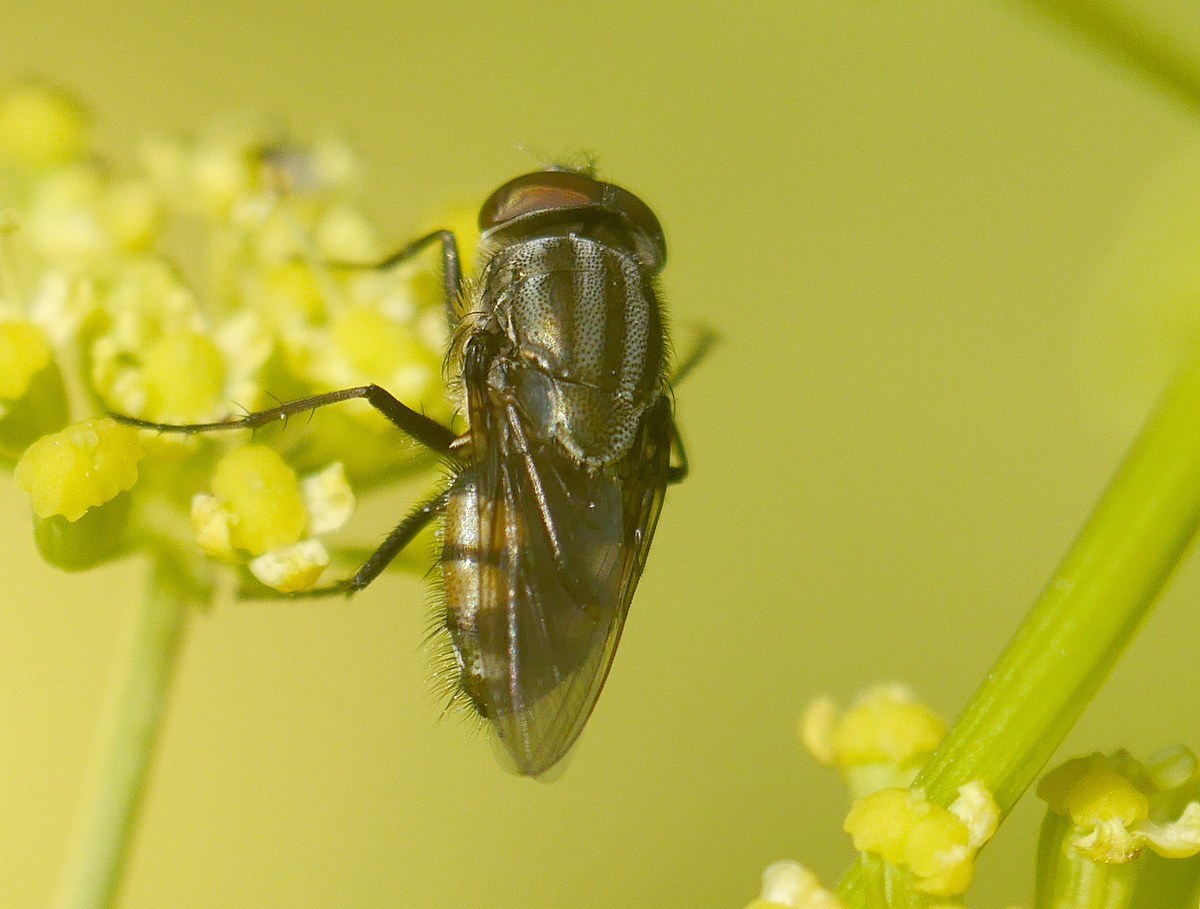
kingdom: Animalia
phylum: Arthropoda
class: Insecta
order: Diptera
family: Calliphoridae
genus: Stomorhina
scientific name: Stomorhina lunata
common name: Locust blowfly
